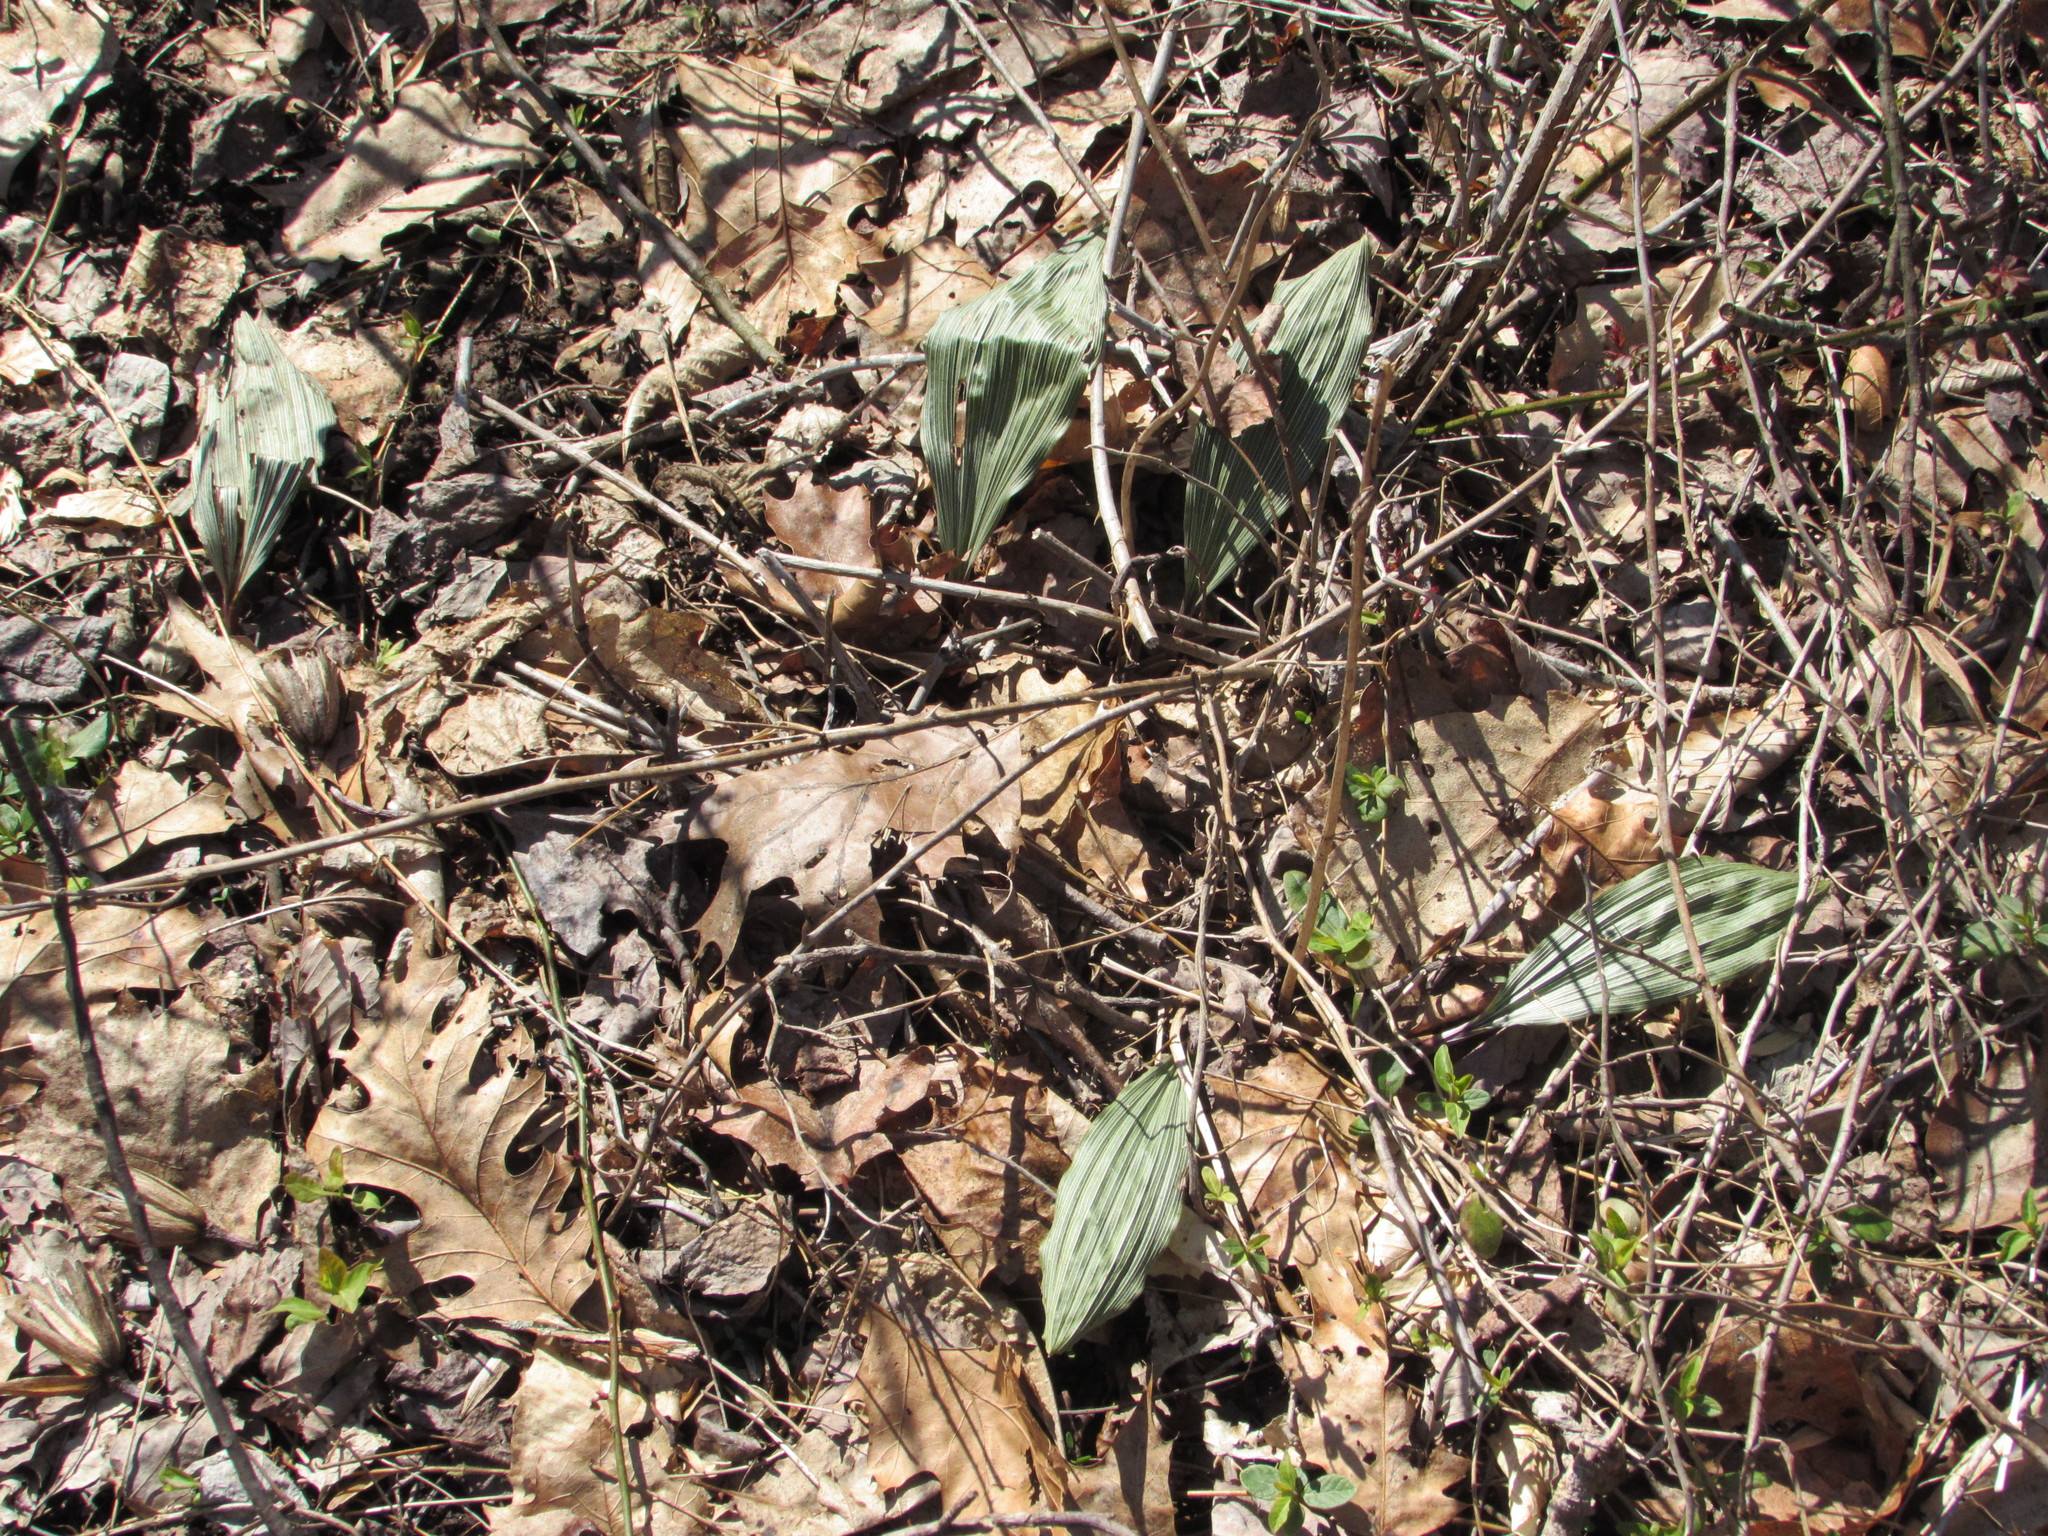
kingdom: Plantae
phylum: Tracheophyta
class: Liliopsida
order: Asparagales
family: Orchidaceae
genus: Aplectrum
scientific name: Aplectrum hyemale
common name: Adam-and-eve
